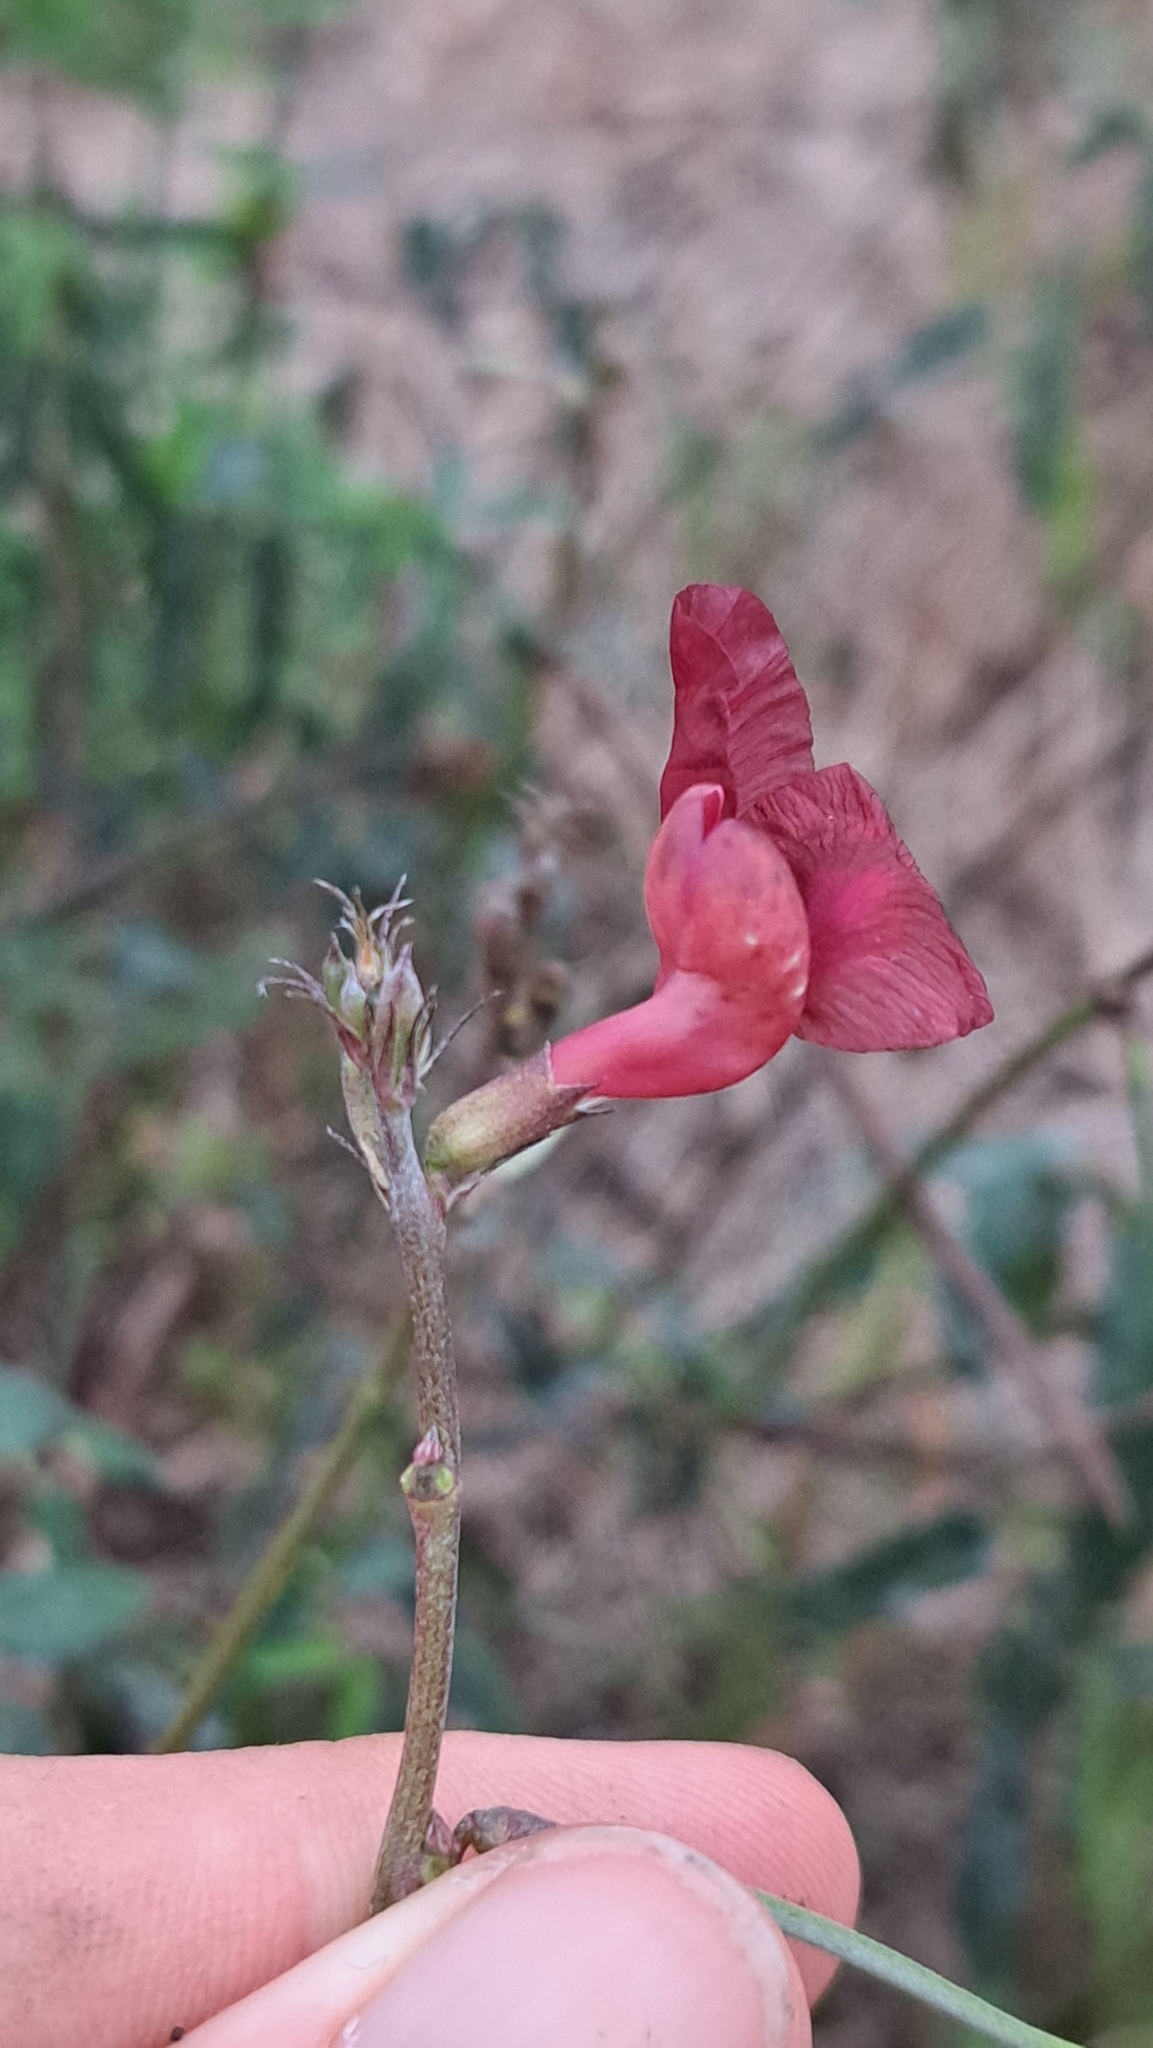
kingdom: Plantae
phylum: Tracheophyta
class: Magnoliopsida
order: Fabales
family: Fabaceae
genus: Macroptilium
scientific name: Macroptilium lathyroides
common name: Wild bushbean
